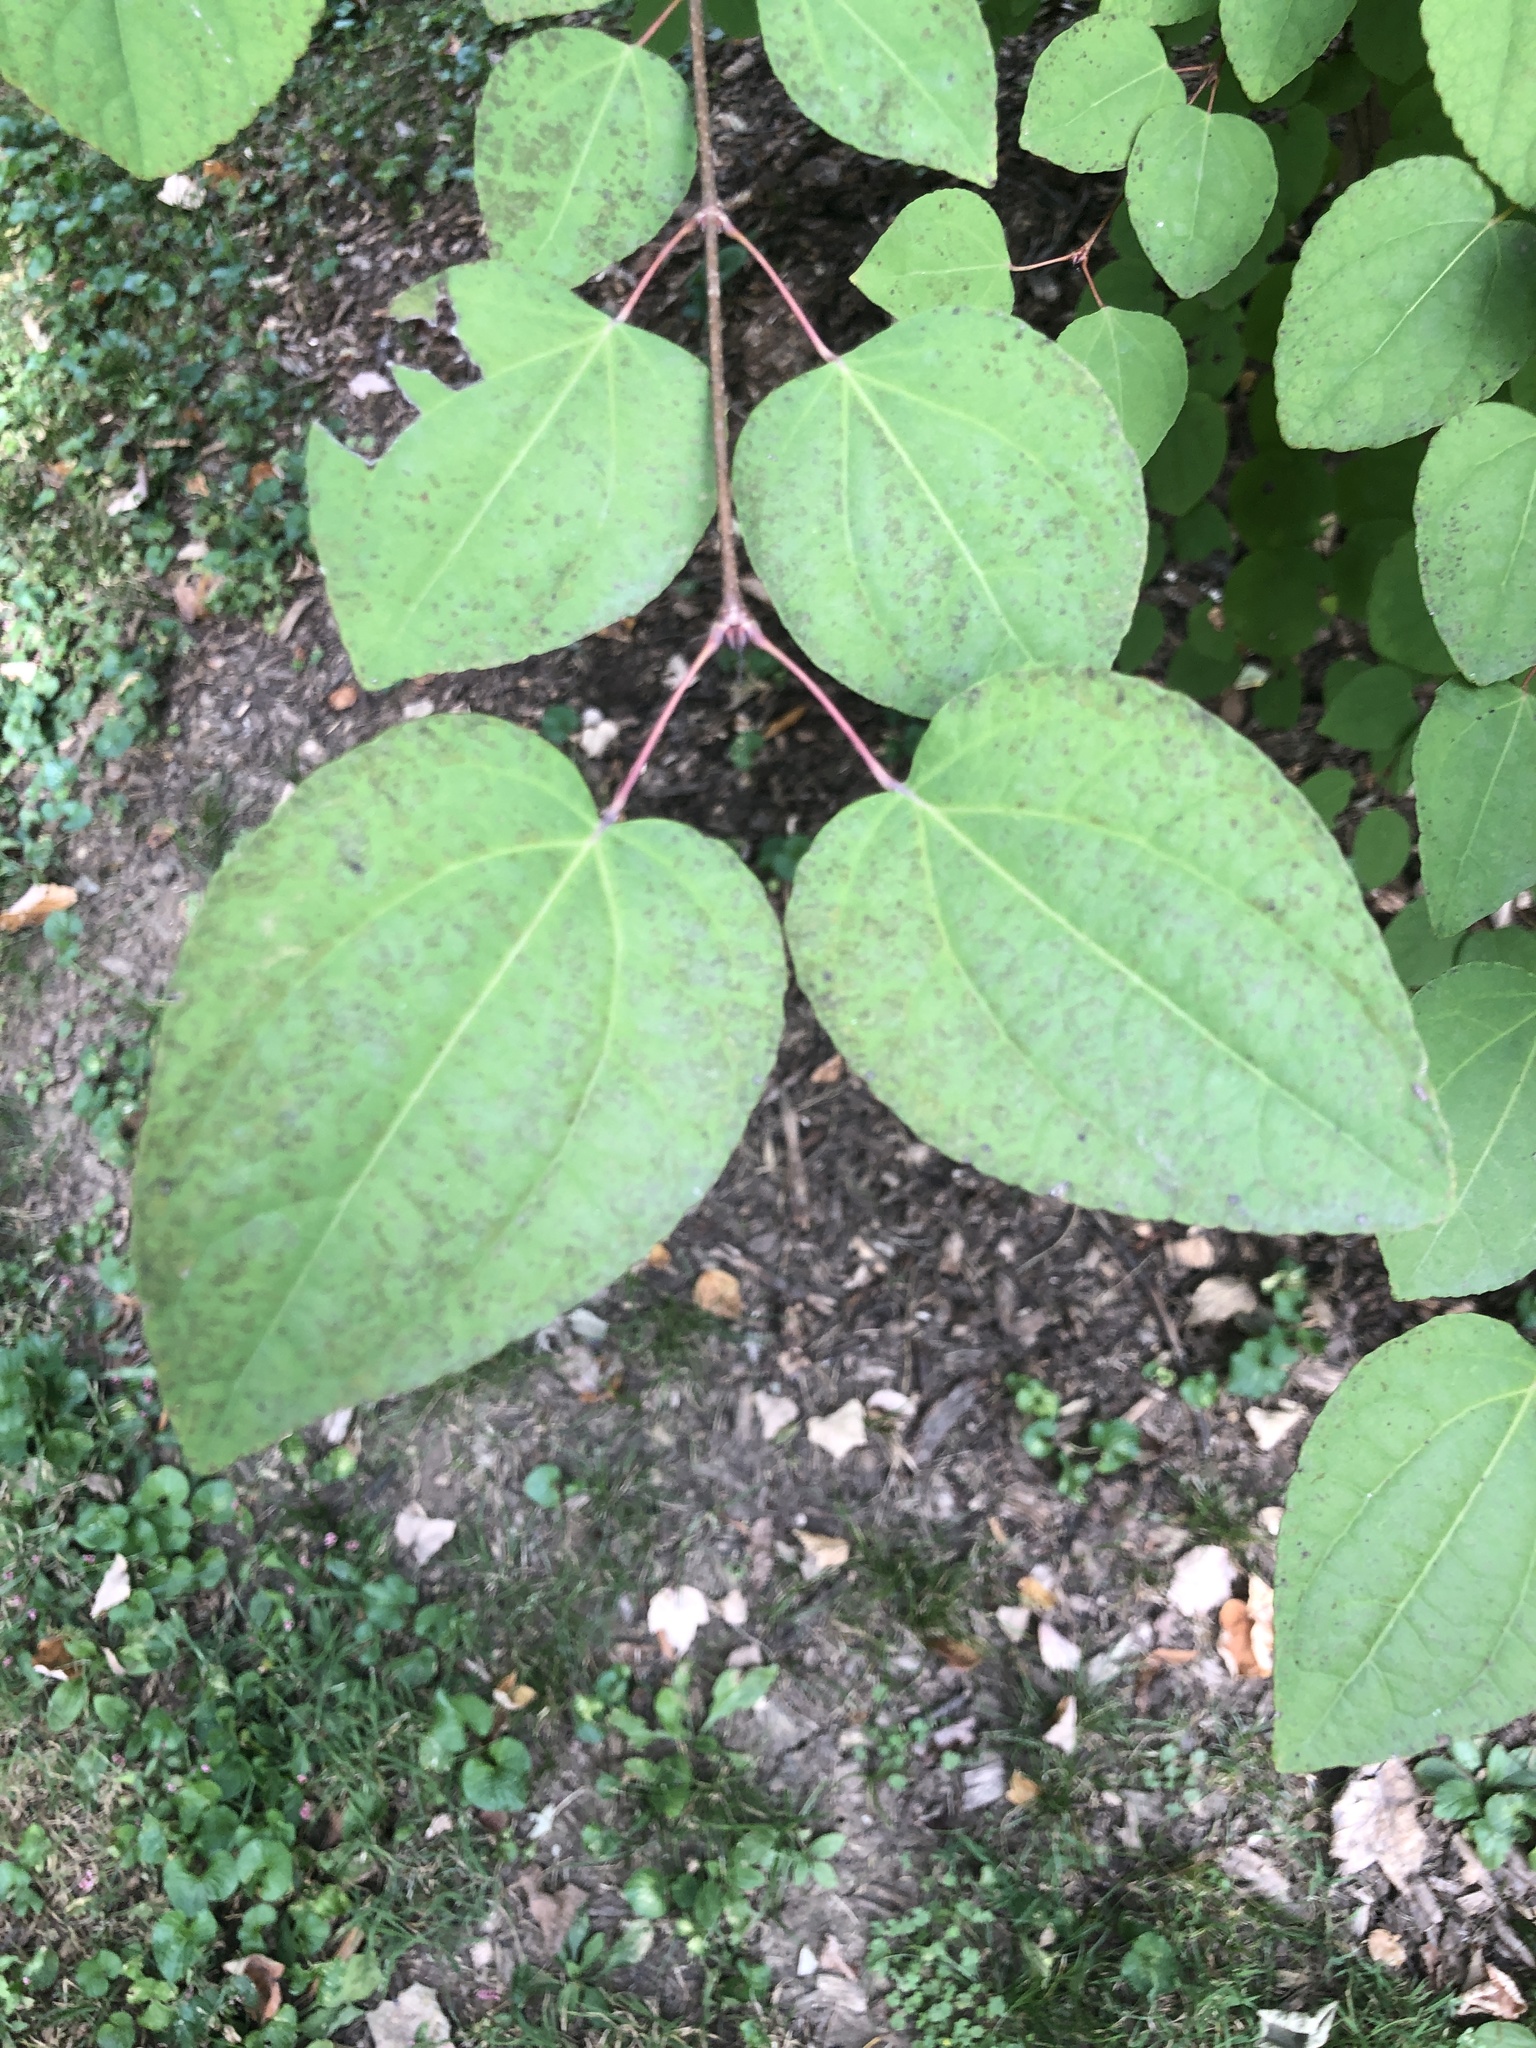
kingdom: Plantae
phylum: Tracheophyta
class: Magnoliopsida
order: Saxifragales
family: Cercidiphyllaceae
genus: Cercidiphyllum
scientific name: Cercidiphyllum japonicum
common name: Katsura tree
